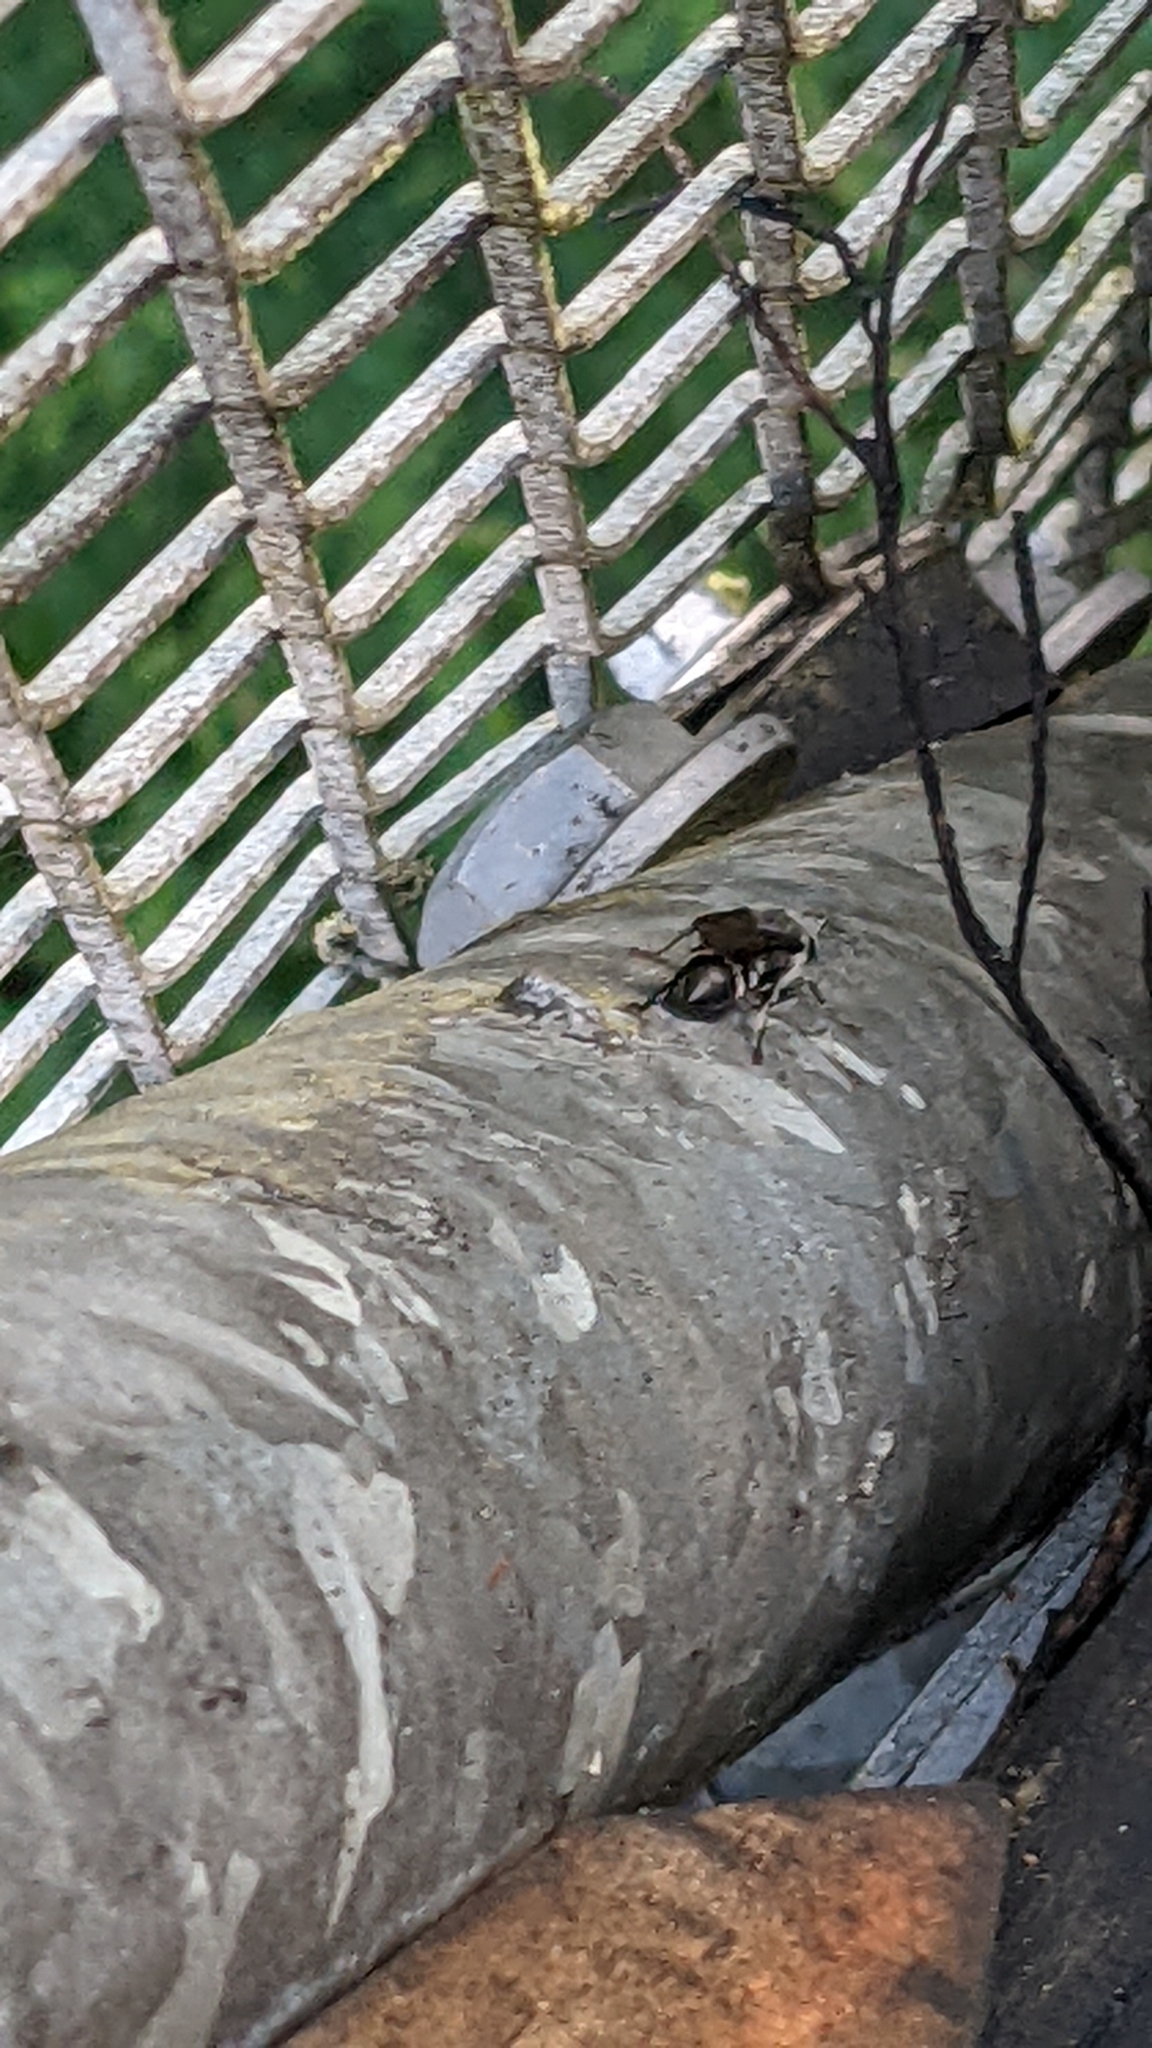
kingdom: Animalia
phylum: Arthropoda
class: Insecta
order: Hymenoptera
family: Crabronidae
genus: Pison
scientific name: Pison spinolae
